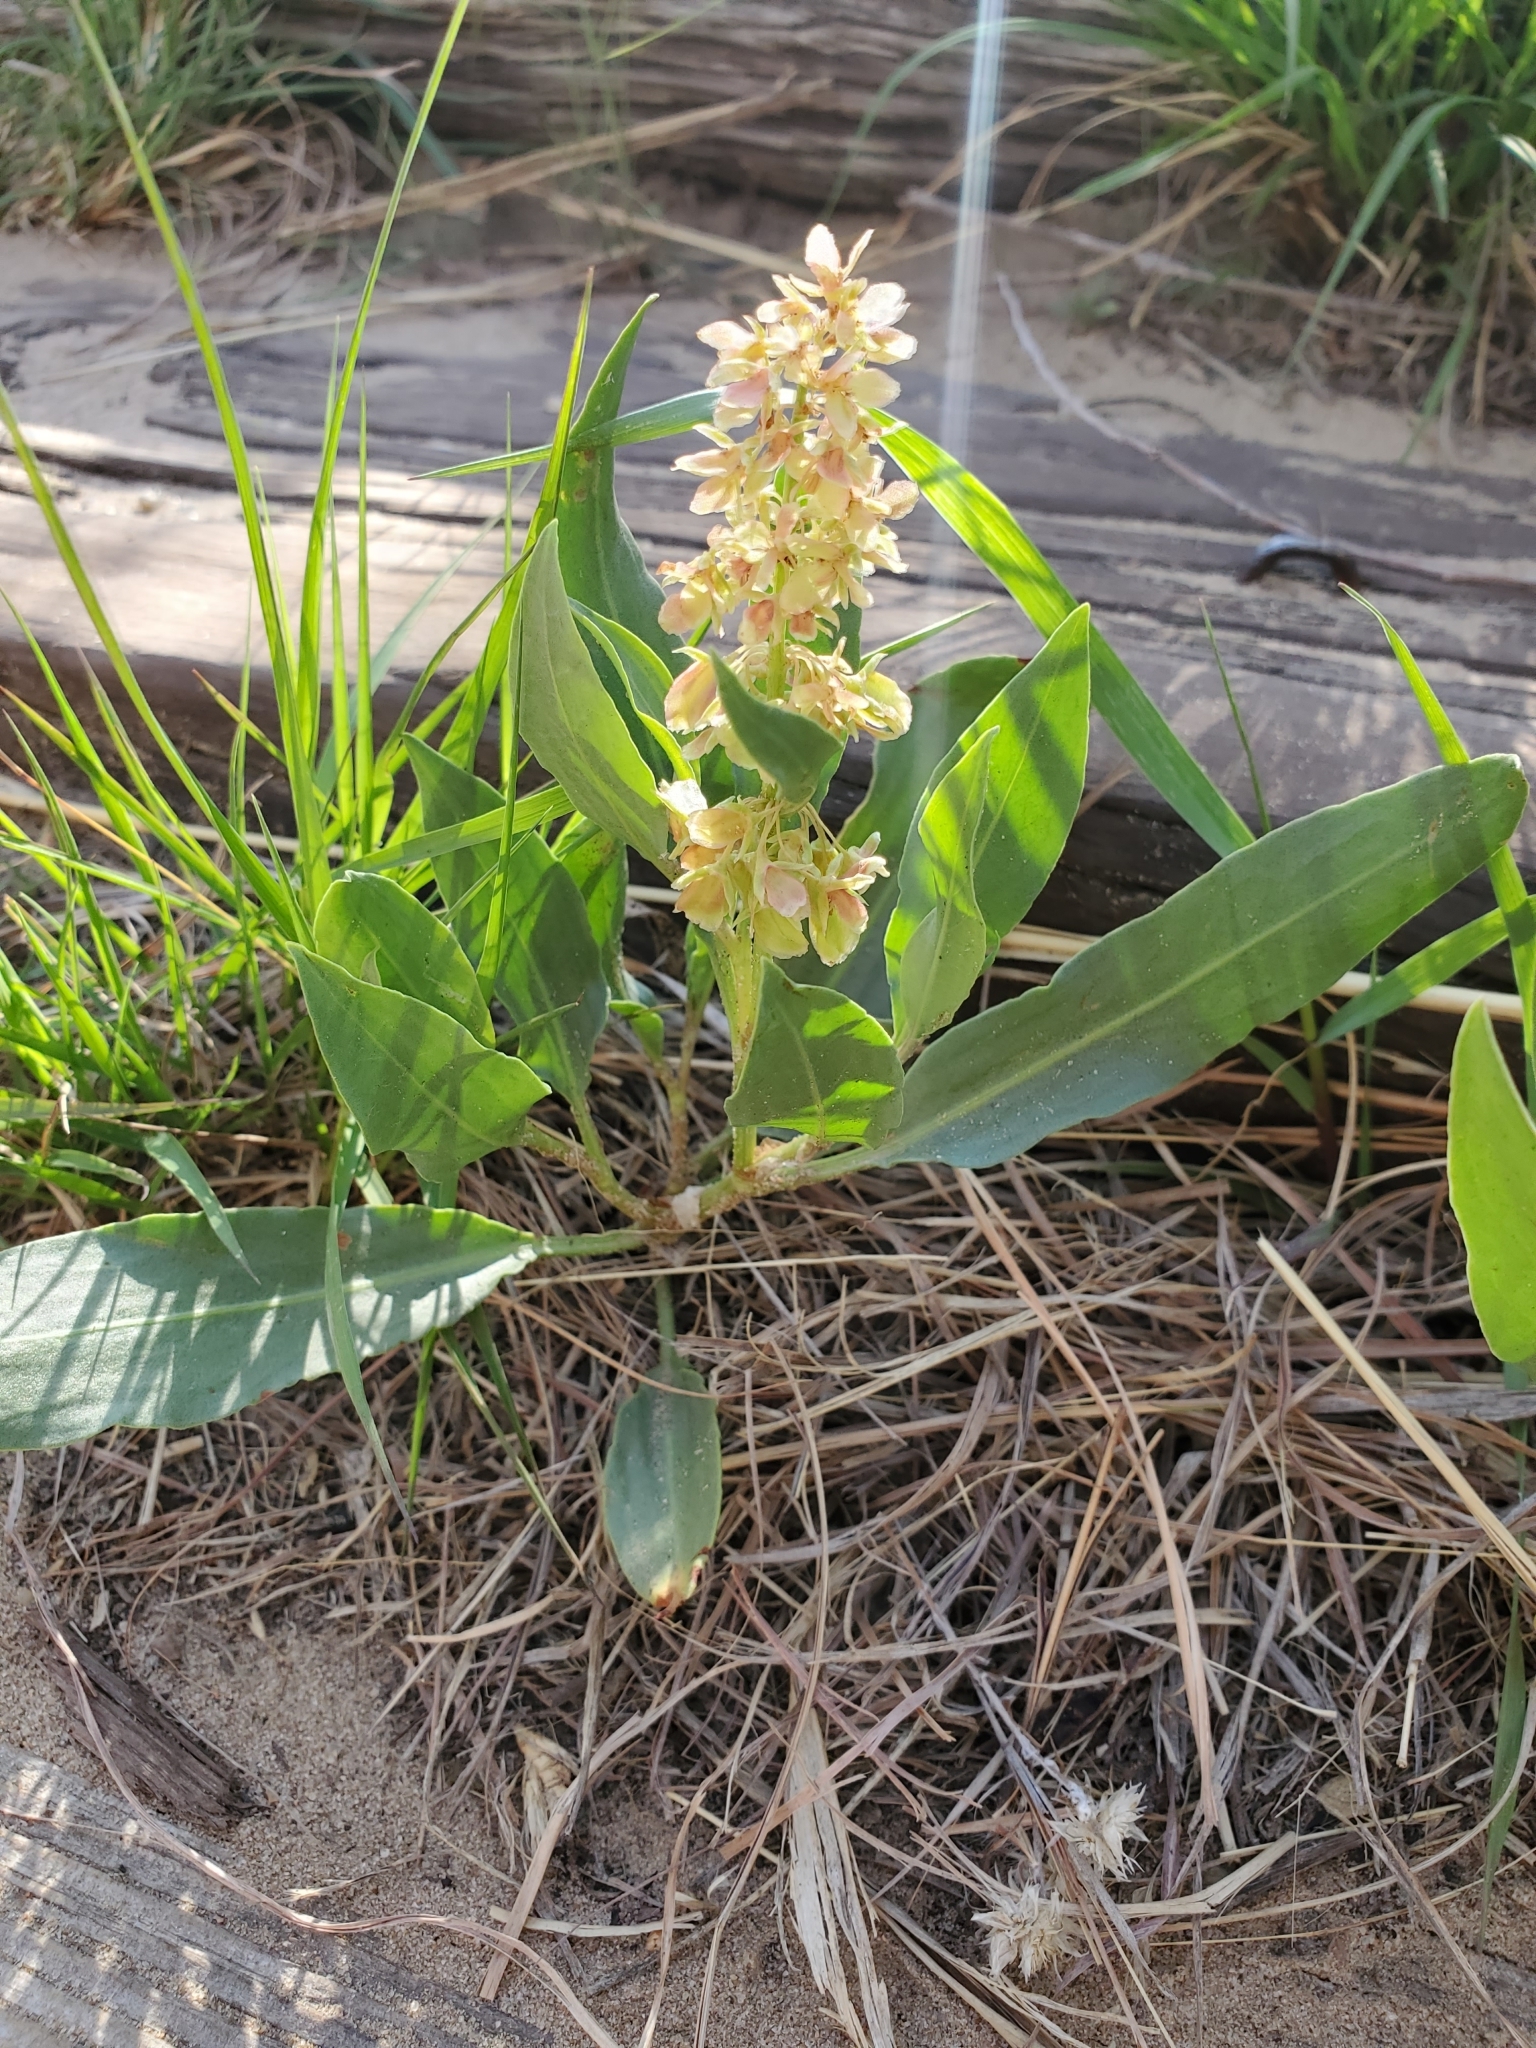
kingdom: Plantae
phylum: Tracheophyta
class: Magnoliopsida
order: Caryophyllales
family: Polygonaceae
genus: Rumex
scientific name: Rumex venosus
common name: Winged dock
